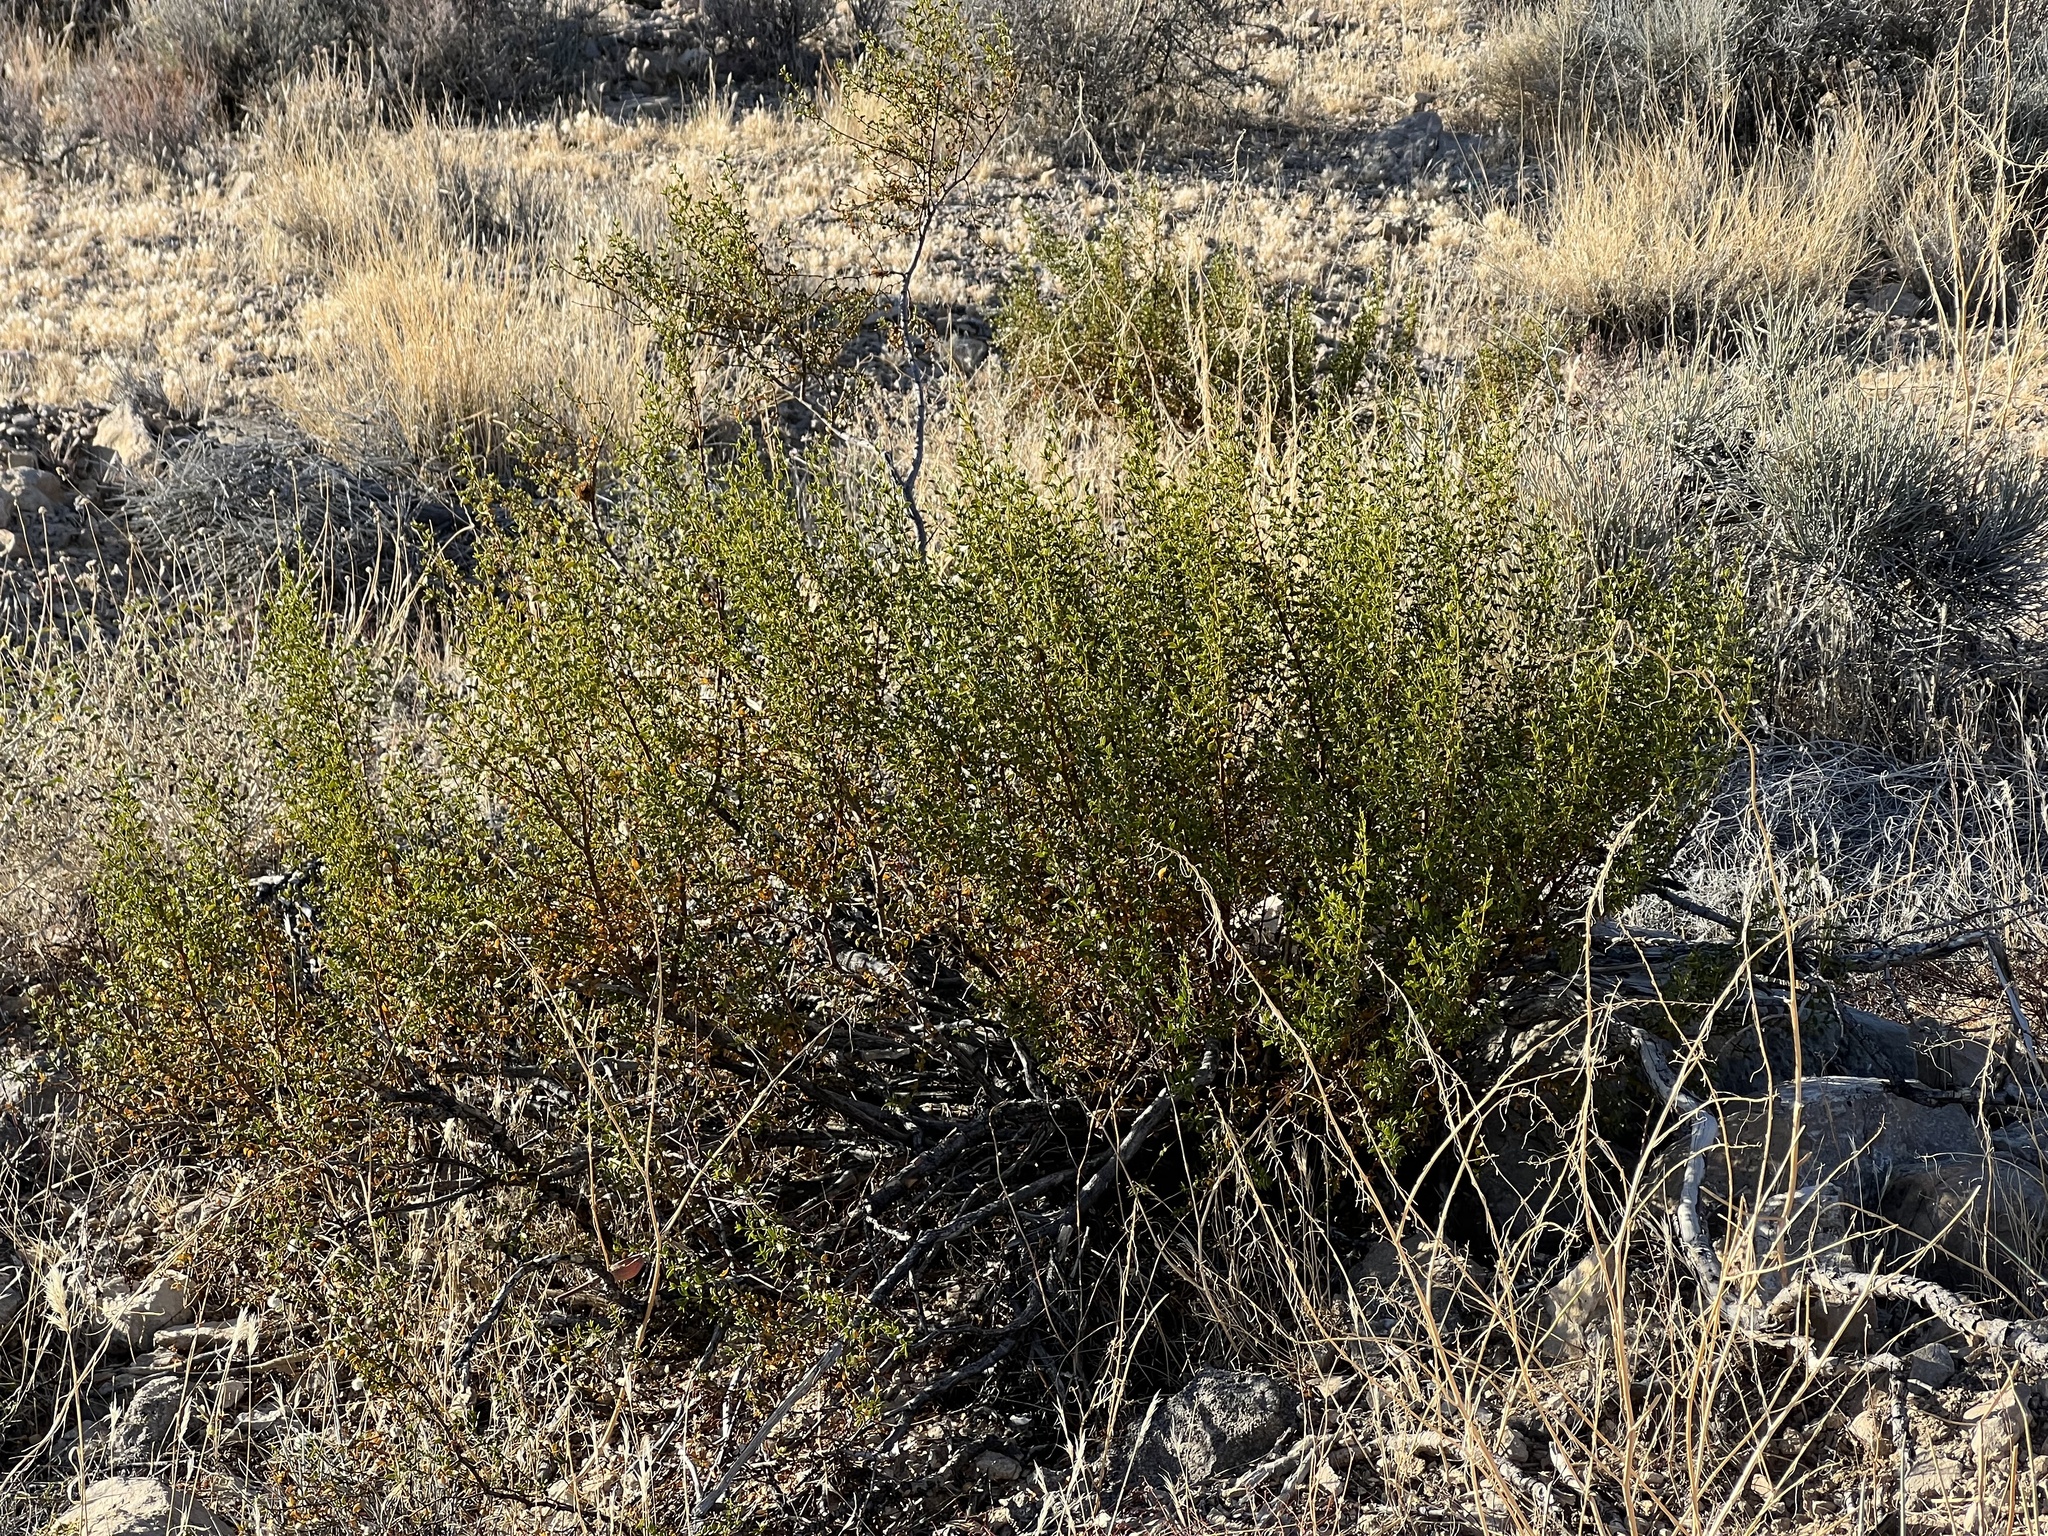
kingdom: Plantae
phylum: Tracheophyta
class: Magnoliopsida
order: Zygophyllales
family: Zygophyllaceae
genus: Larrea
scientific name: Larrea tridentata
